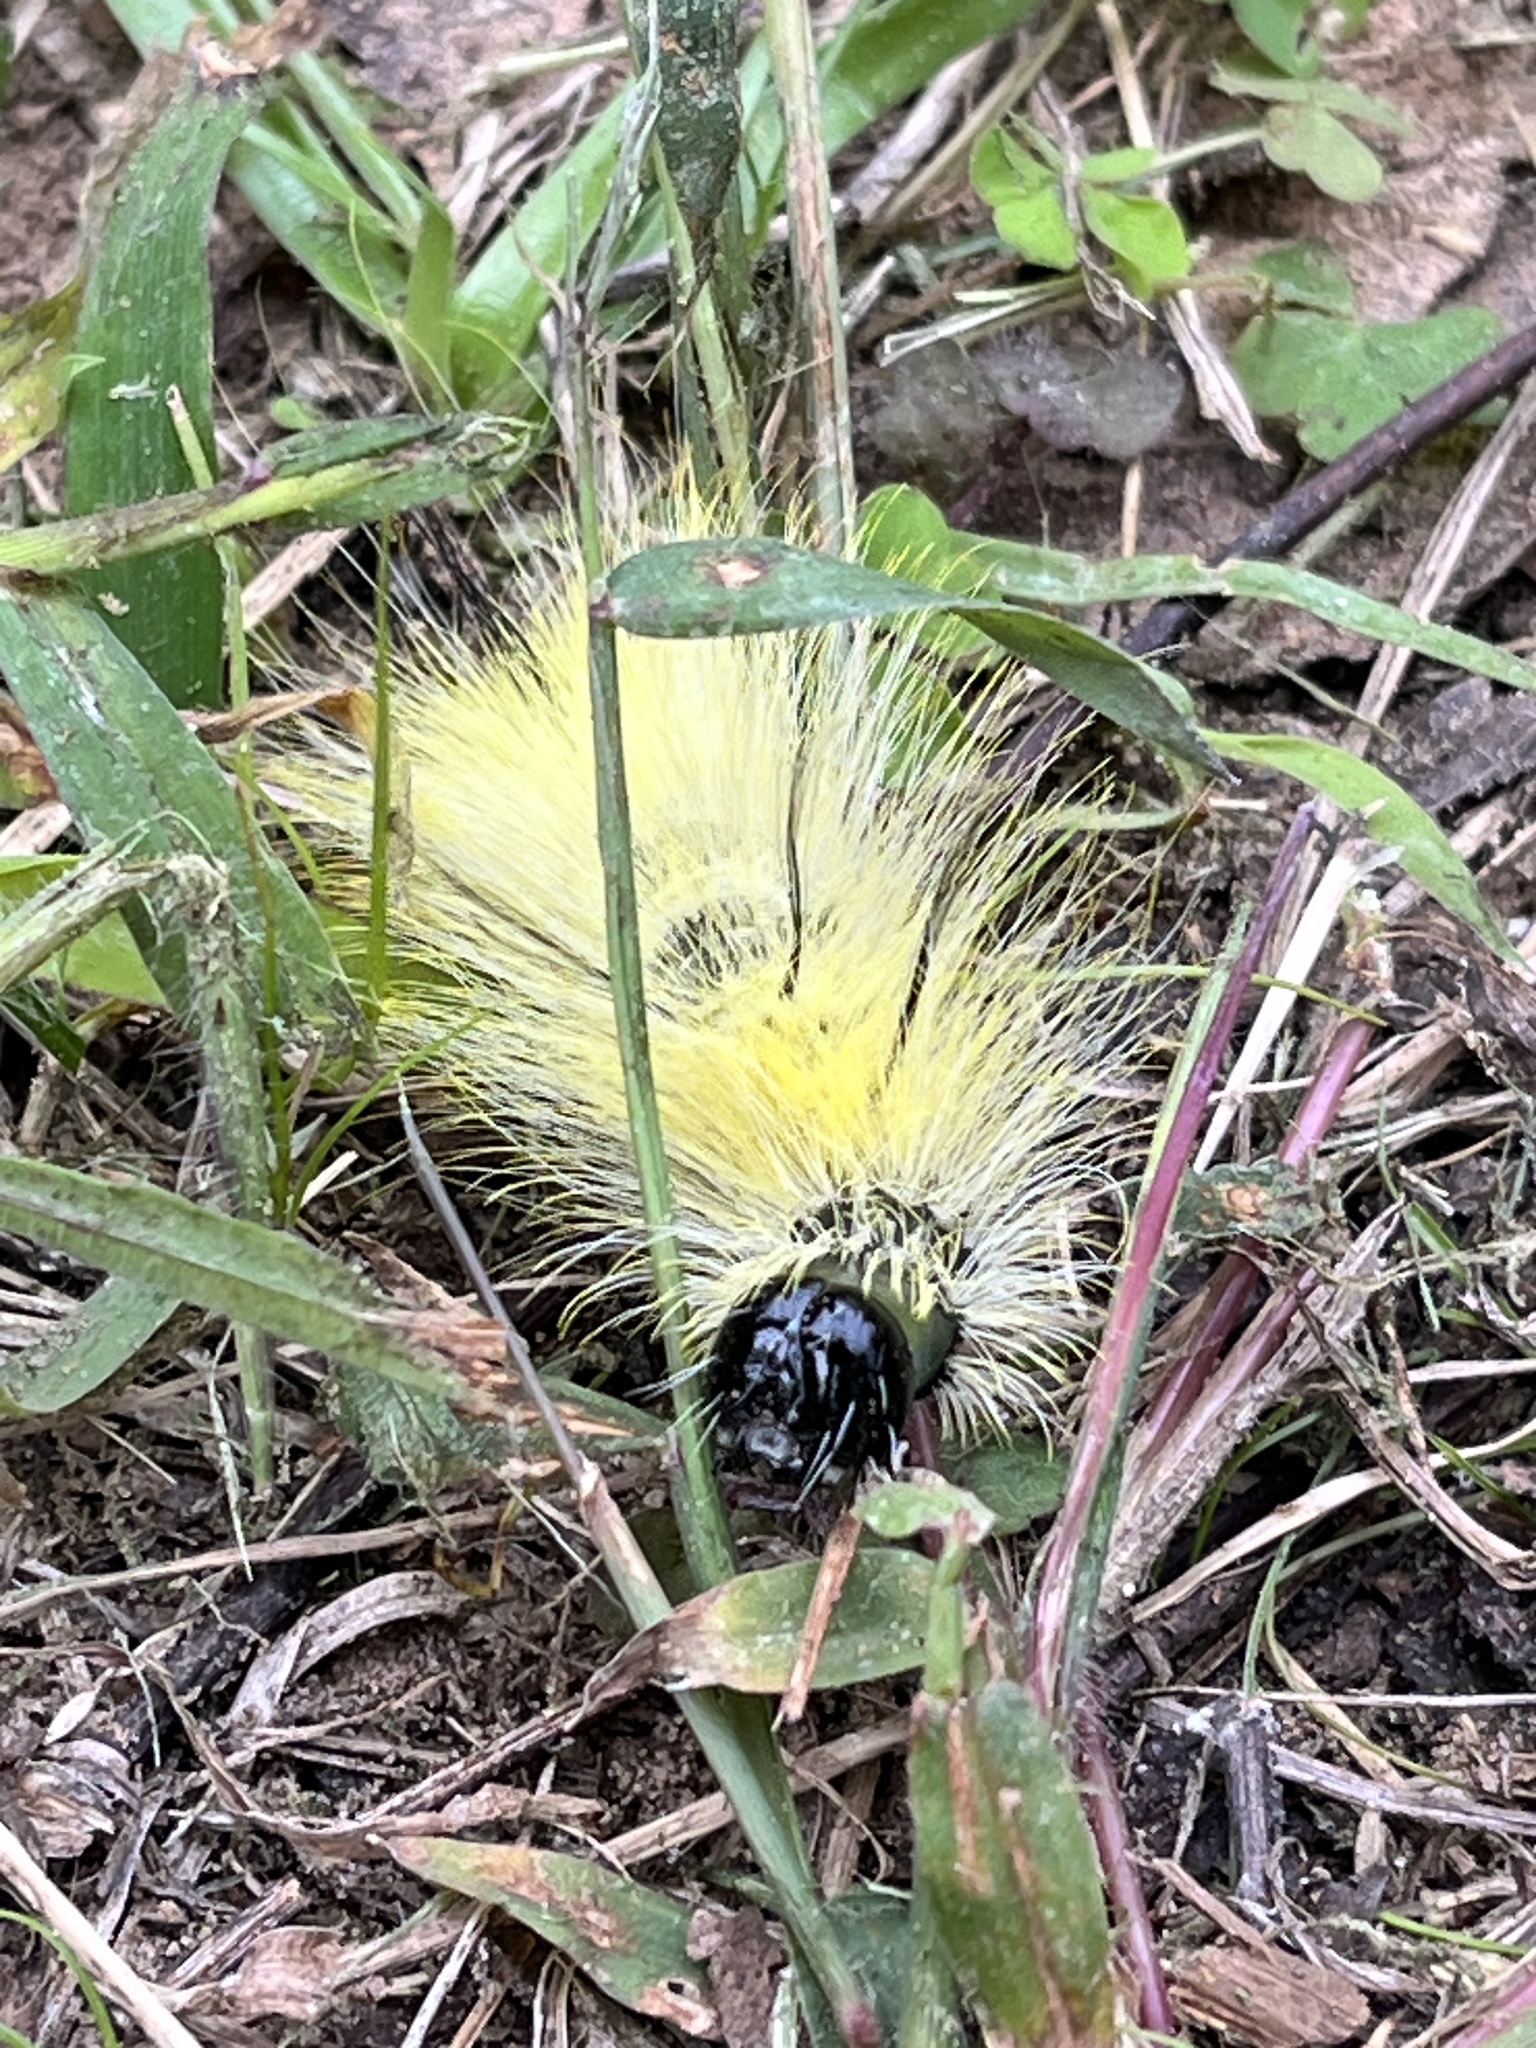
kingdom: Animalia
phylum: Arthropoda
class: Insecta
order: Lepidoptera
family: Noctuidae
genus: Acronicta
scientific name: Acronicta americana
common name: American dagger
